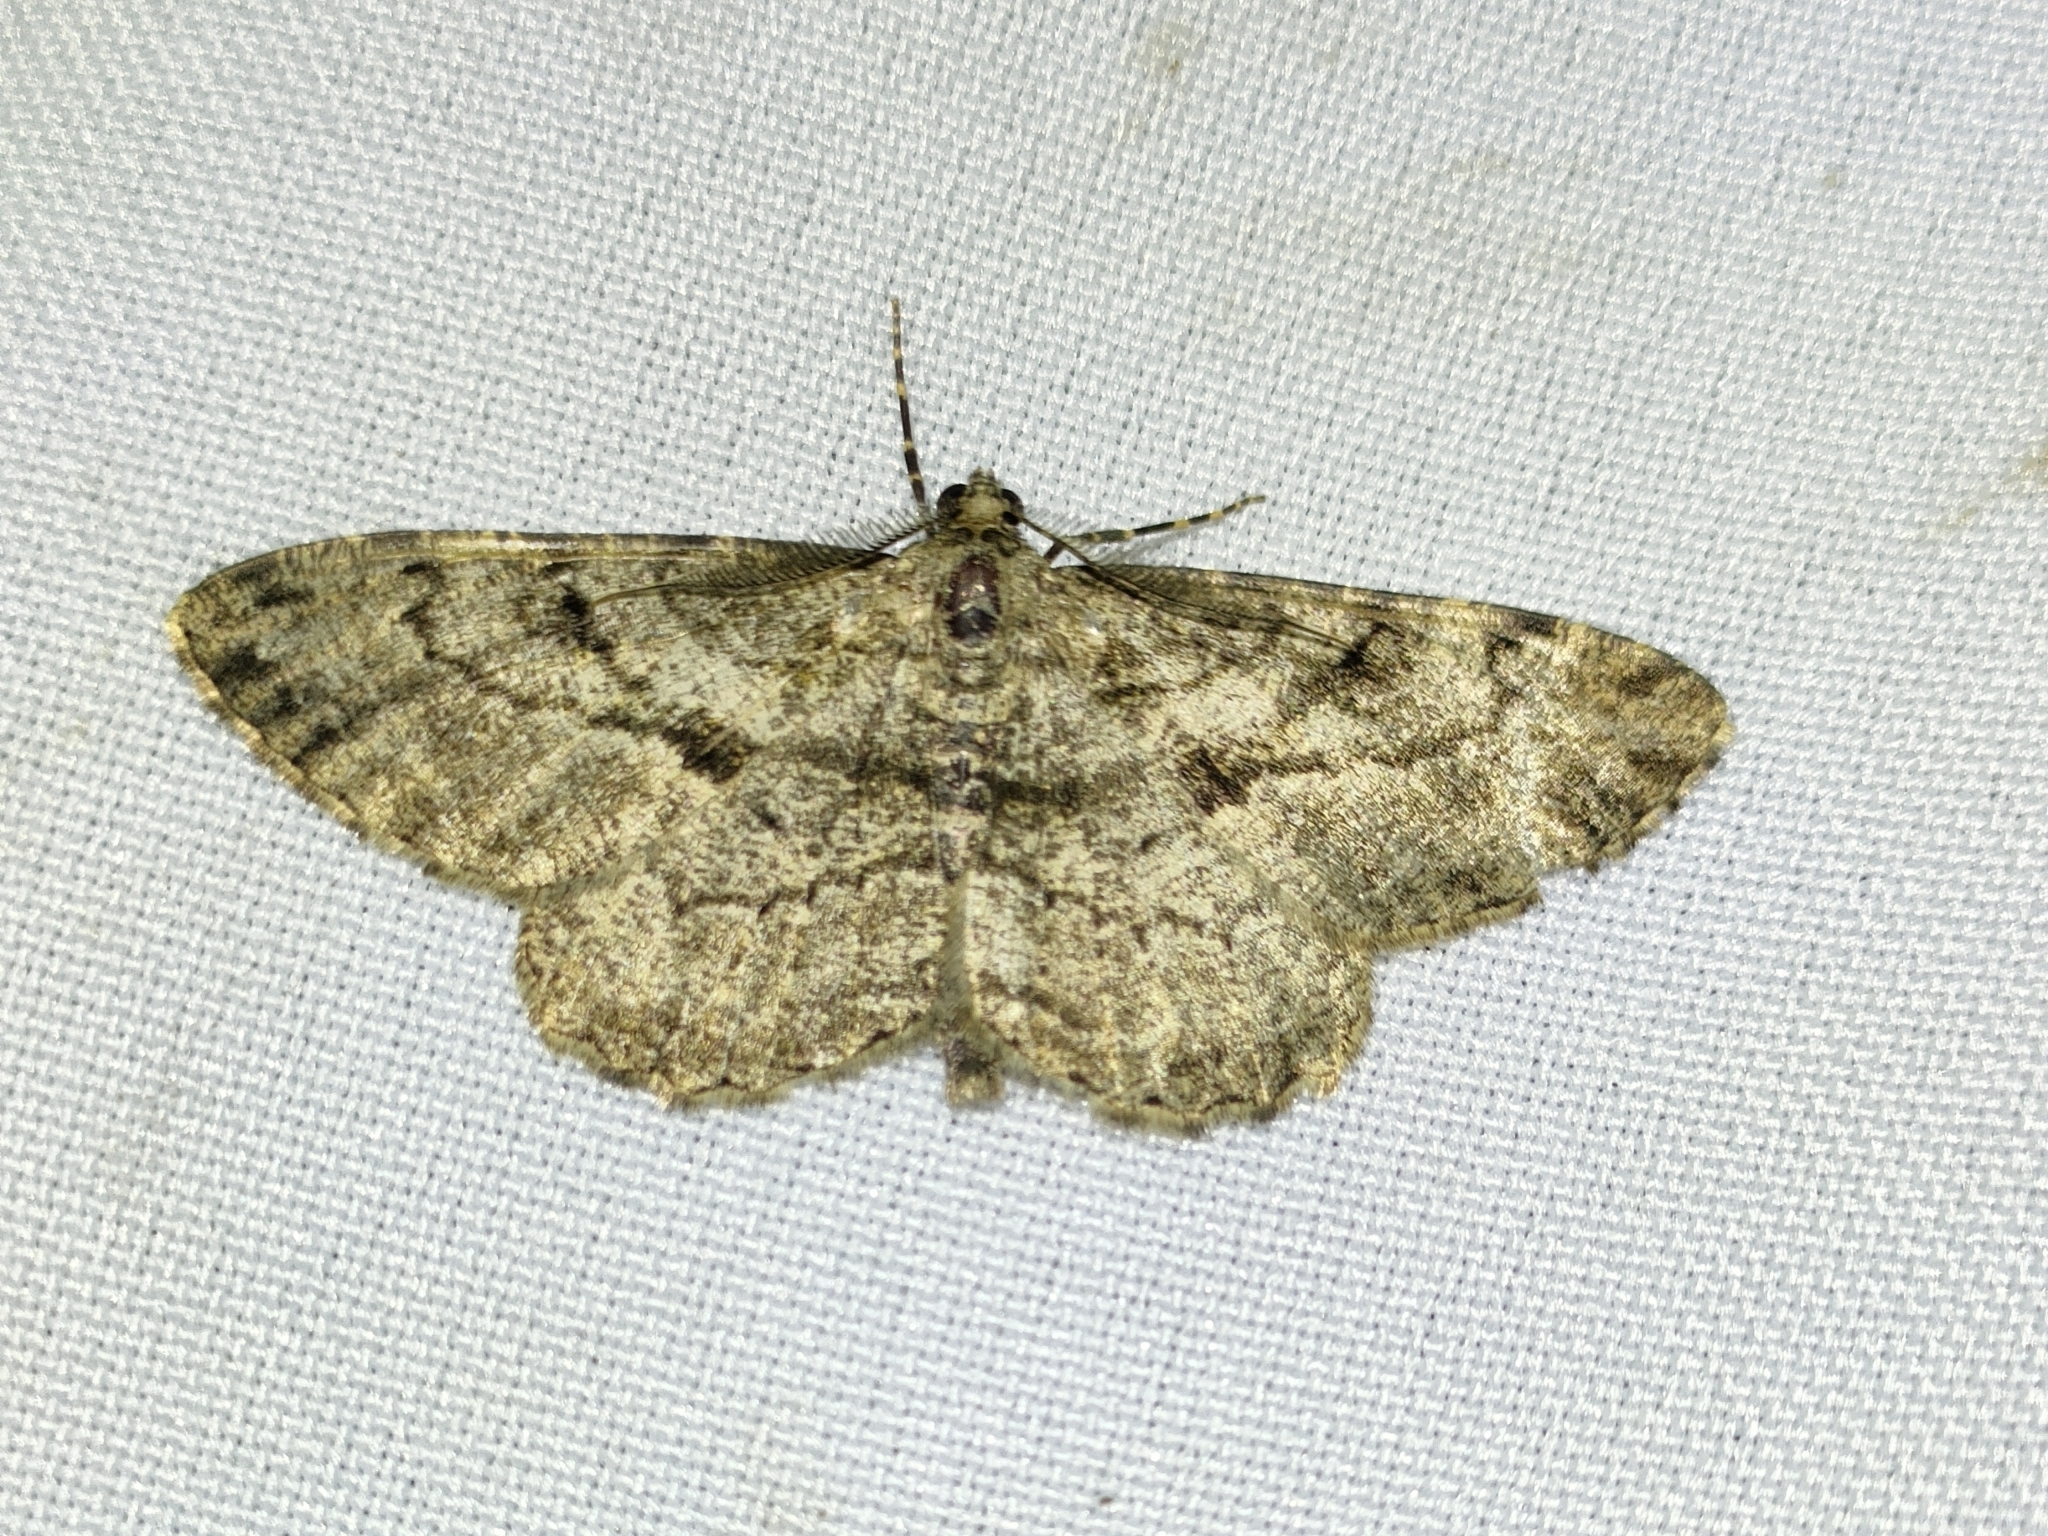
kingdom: Animalia
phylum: Arthropoda
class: Insecta
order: Lepidoptera
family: Geometridae
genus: Peribatodes
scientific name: Peribatodes rhomboidaria
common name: Willow beauty
